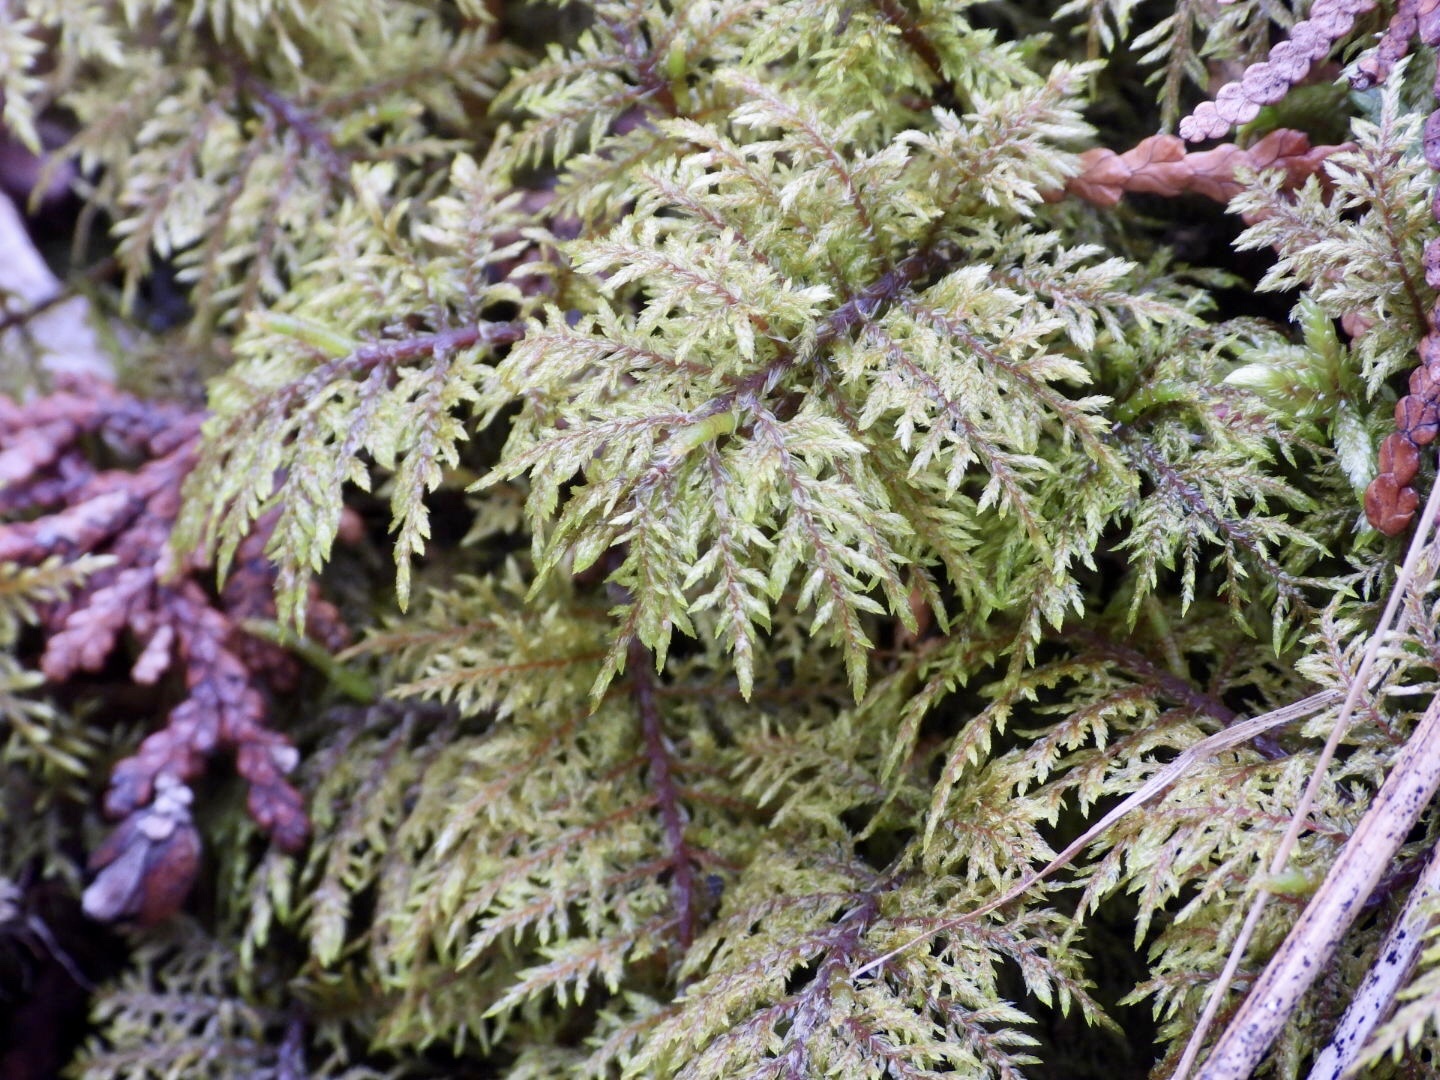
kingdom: Plantae
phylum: Bryophyta
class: Bryopsida
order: Hypnales
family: Hylocomiaceae
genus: Hylocomium
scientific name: Hylocomium splendens
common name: Stairstep moss
